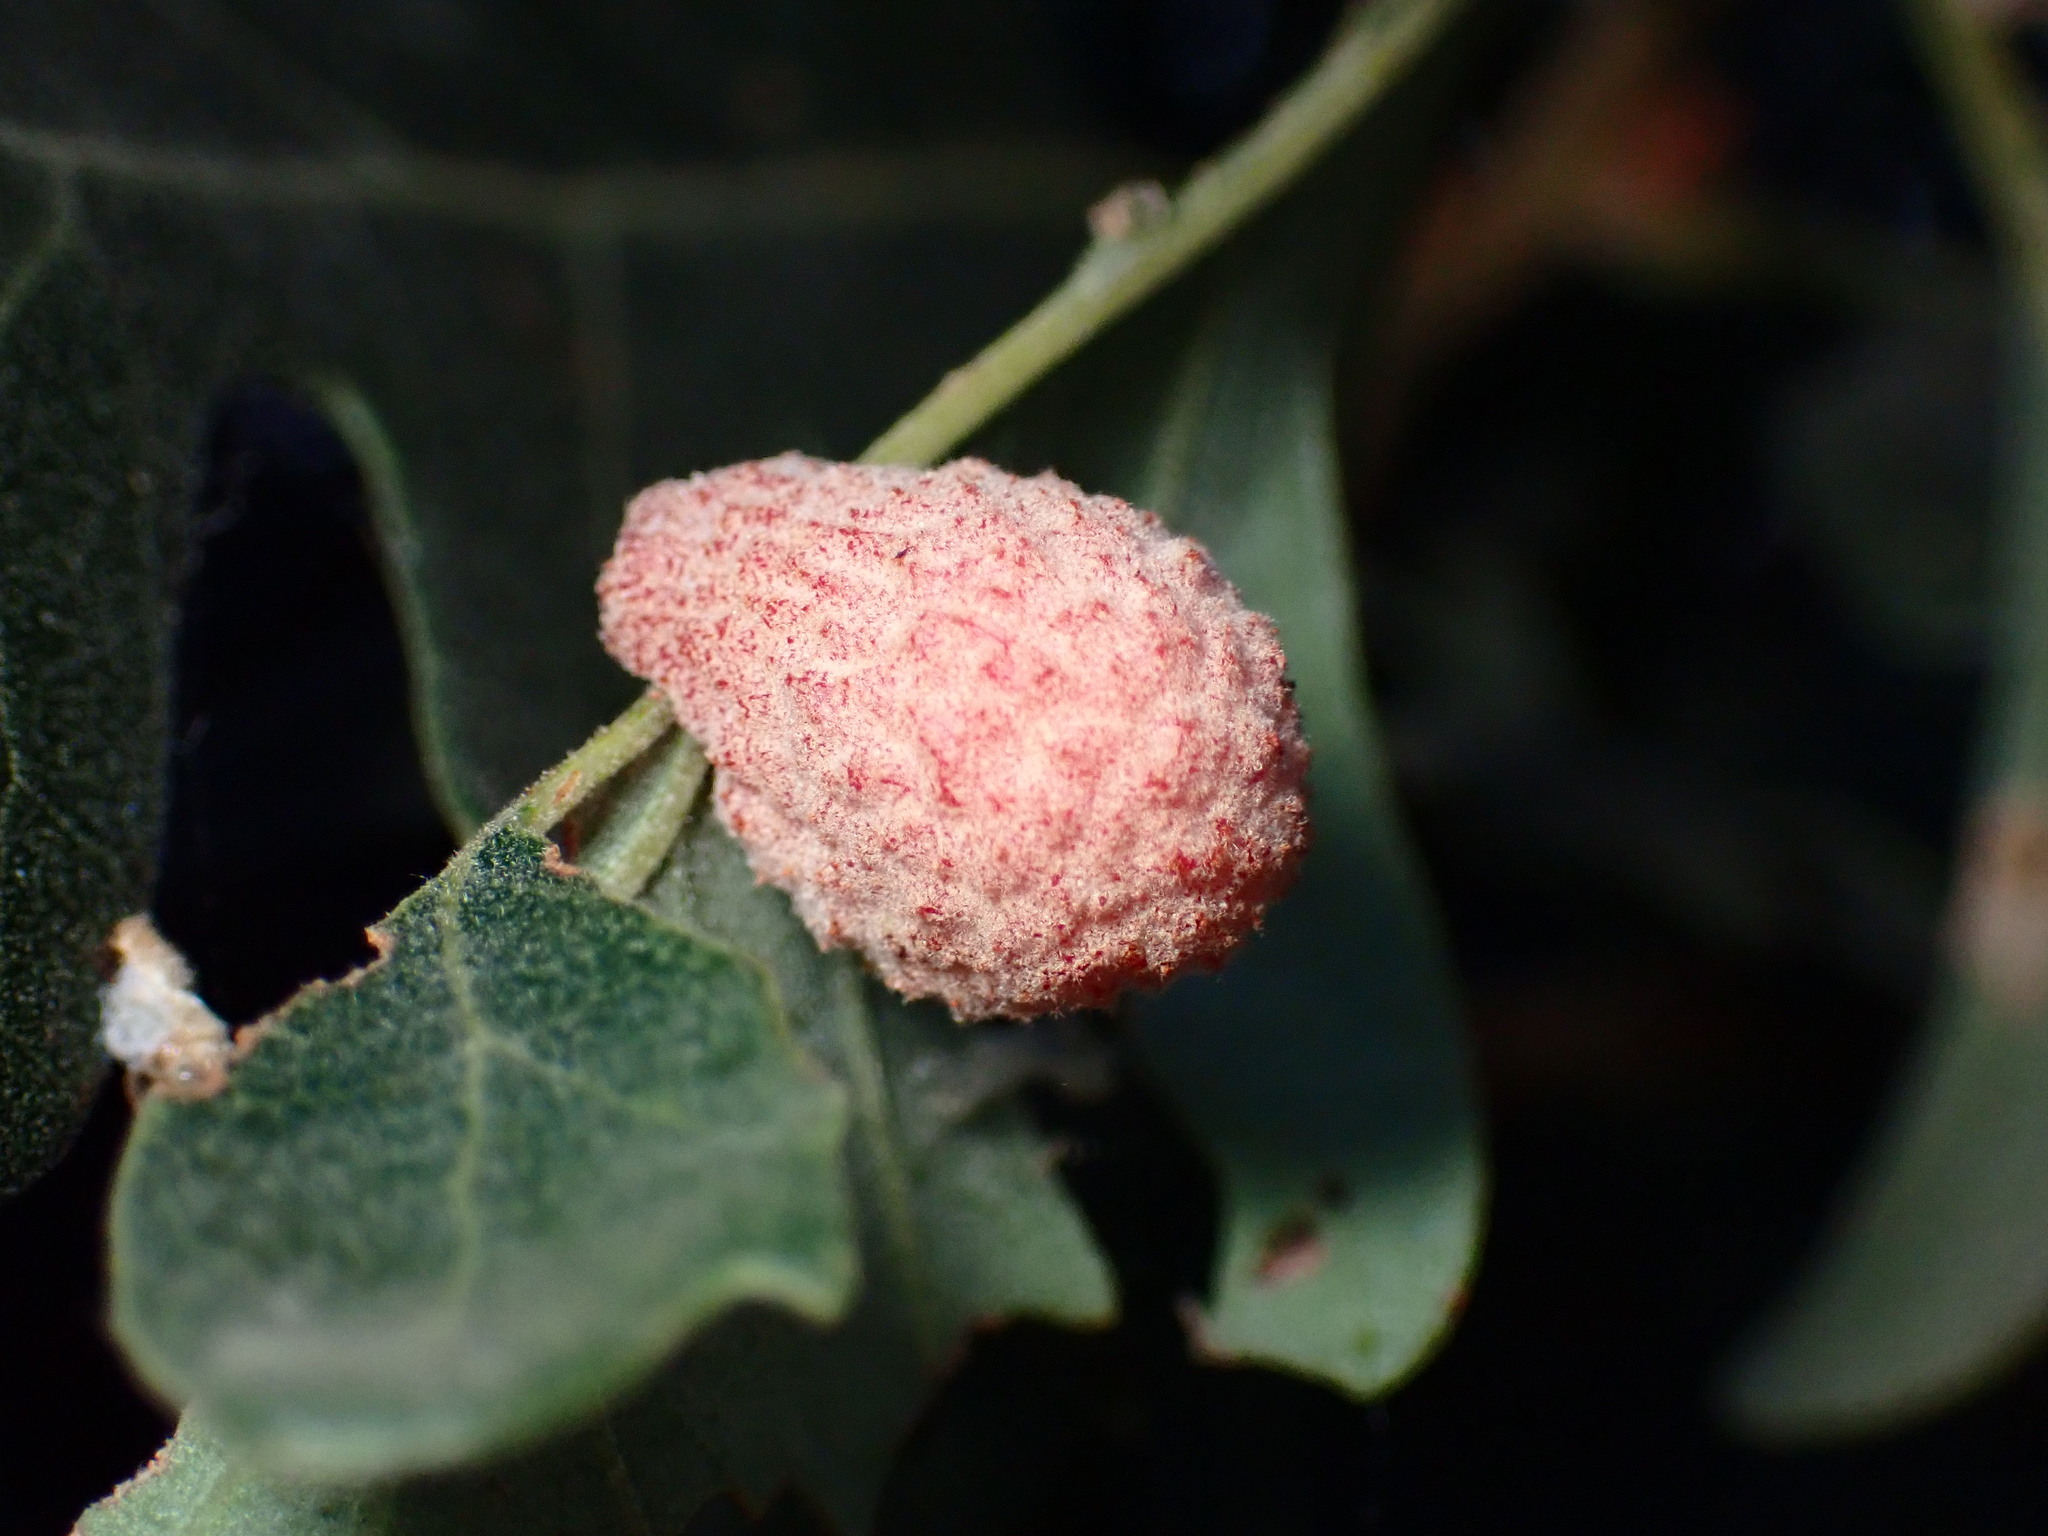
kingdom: Animalia
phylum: Arthropoda
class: Insecta
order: Hymenoptera
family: Cynipidae
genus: Cynips
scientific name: Cynips conspicua
